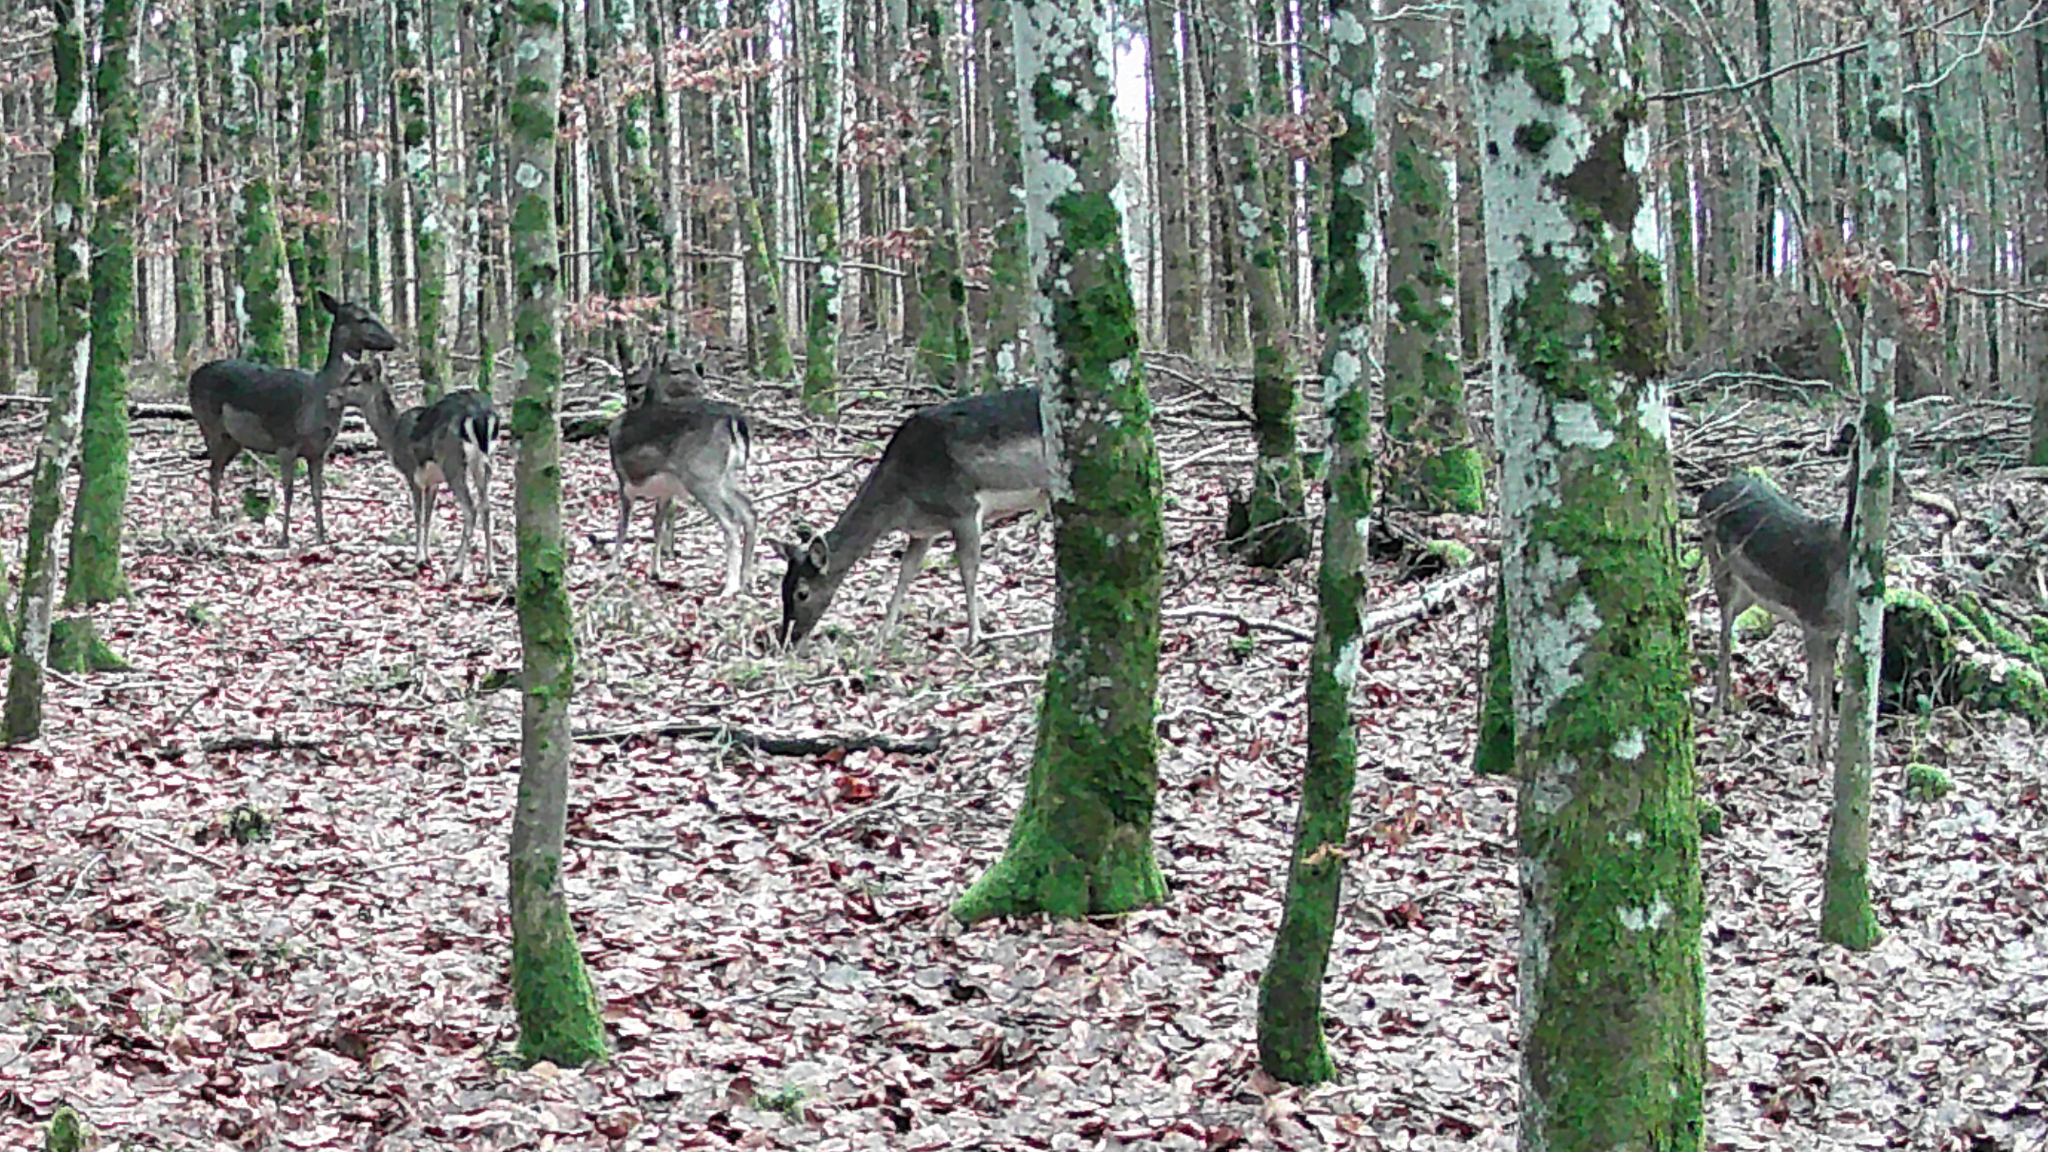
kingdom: Animalia
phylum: Chordata
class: Mammalia
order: Artiodactyla
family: Cervidae
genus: Dama
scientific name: Dama dama
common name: Fallow deer
